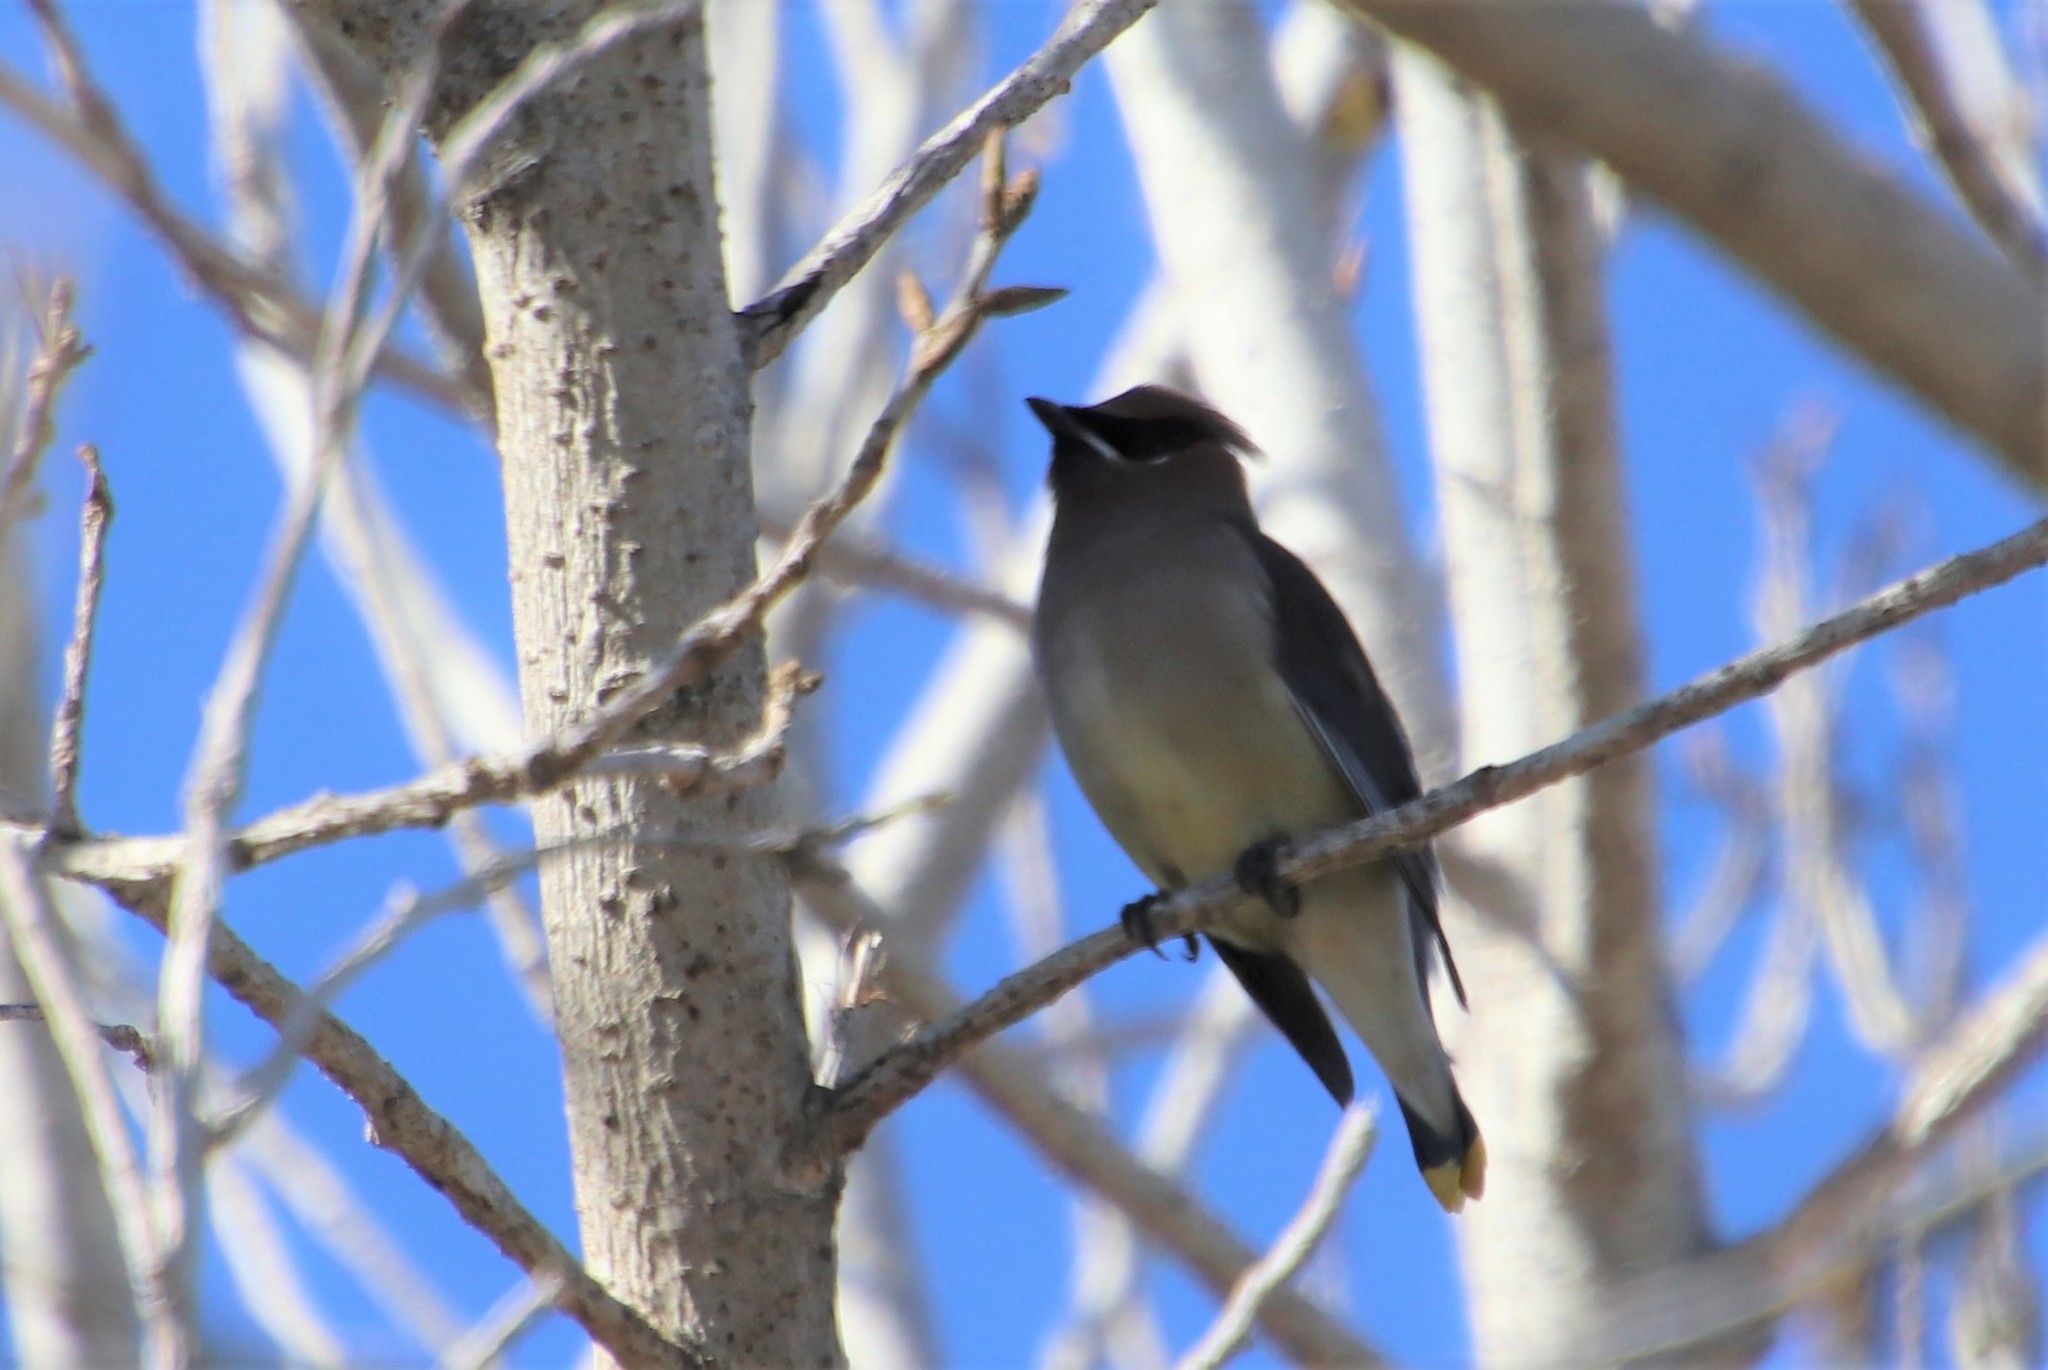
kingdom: Animalia
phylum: Chordata
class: Aves
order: Passeriformes
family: Bombycillidae
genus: Bombycilla
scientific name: Bombycilla cedrorum
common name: Cedar waxwing
